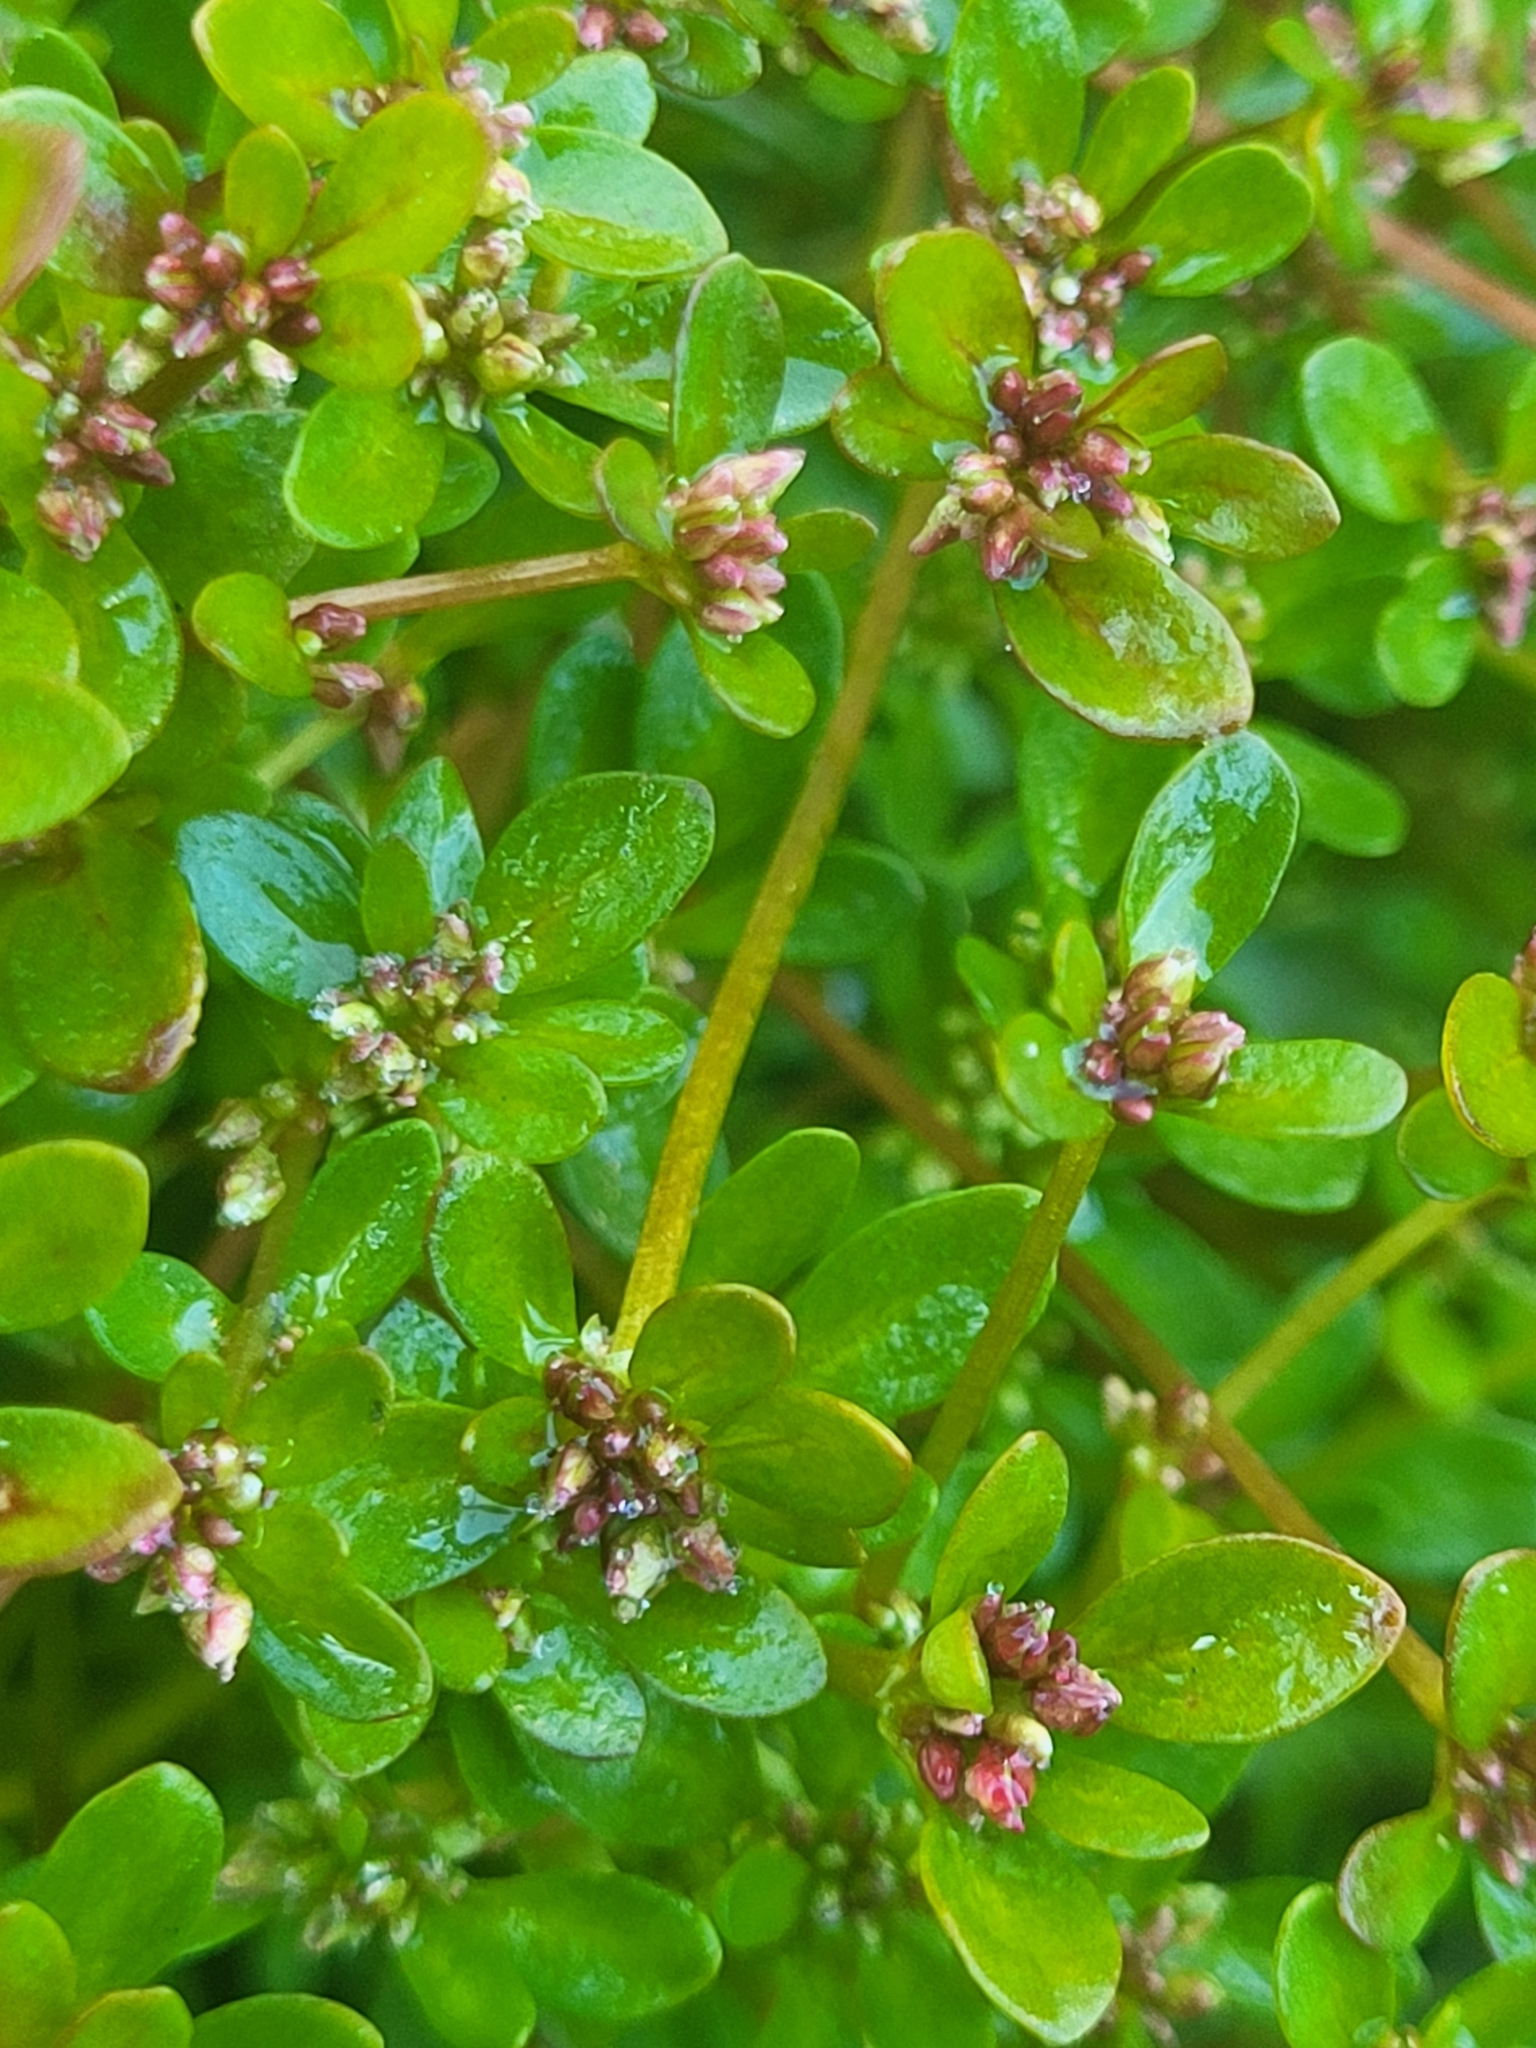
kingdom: Plantae
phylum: Tracheophyta
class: Magnoliopsida
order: Caryophyllales
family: Polygonaceae
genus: Koenigia
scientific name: Koenigia islandica
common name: Iceland-purslane
